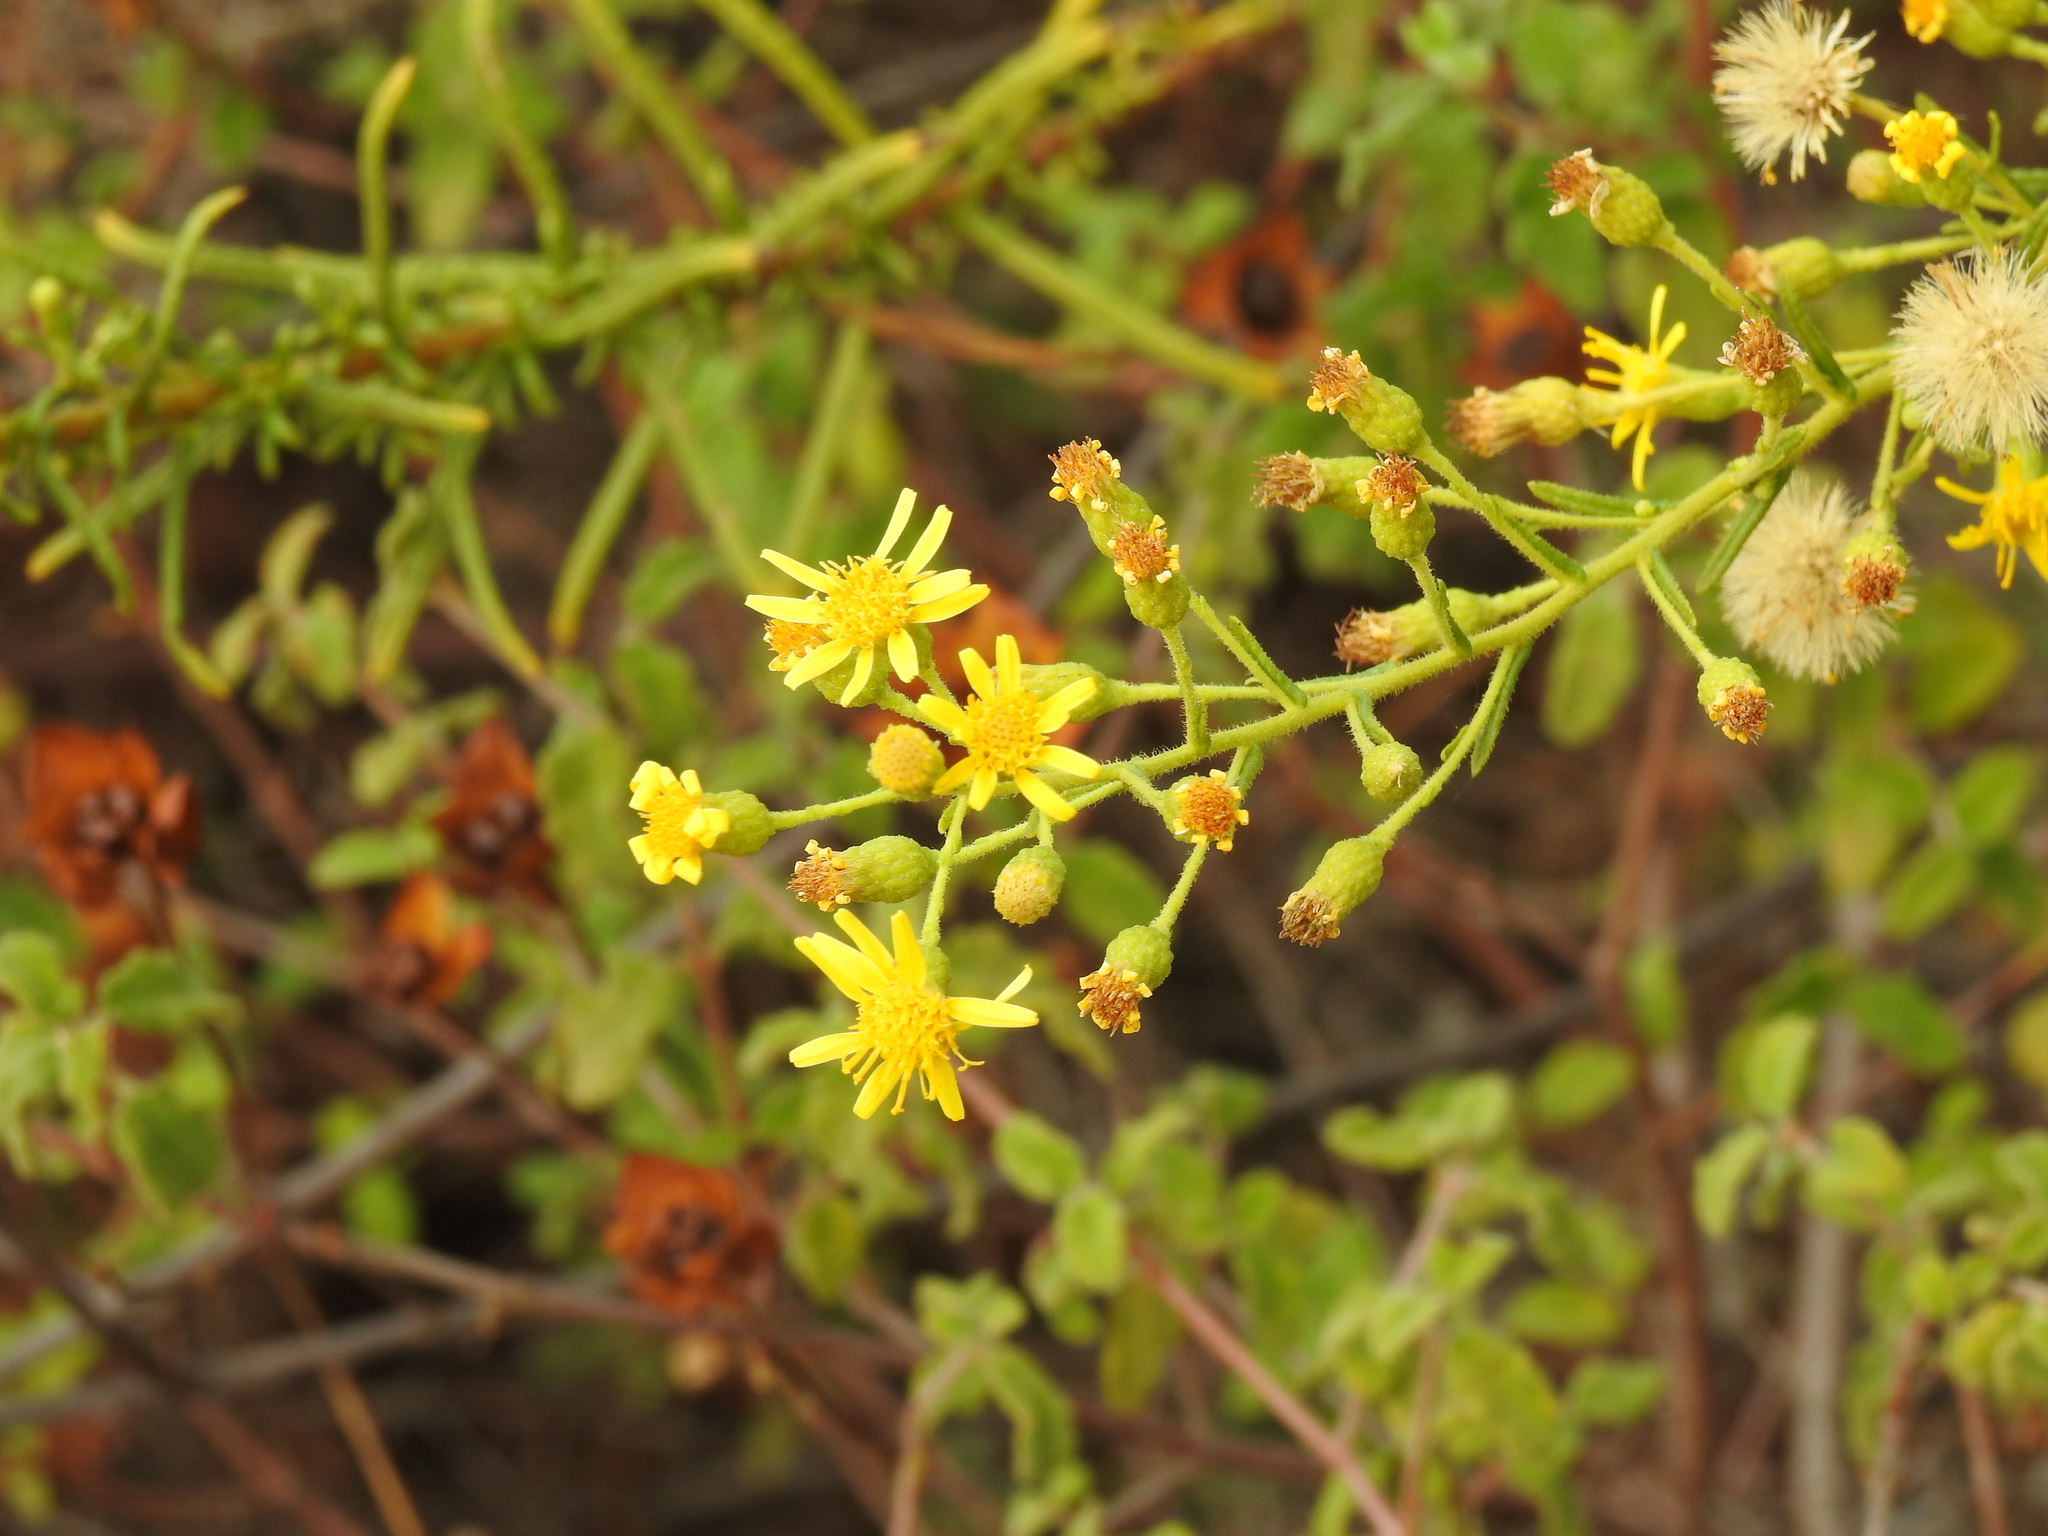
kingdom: Plantae
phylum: Tracheophyta
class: Magnoliopsida
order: Asterales
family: Asteraceae
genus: Dittrichia
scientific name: Dittrichia viscosa
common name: Woody fleabane
